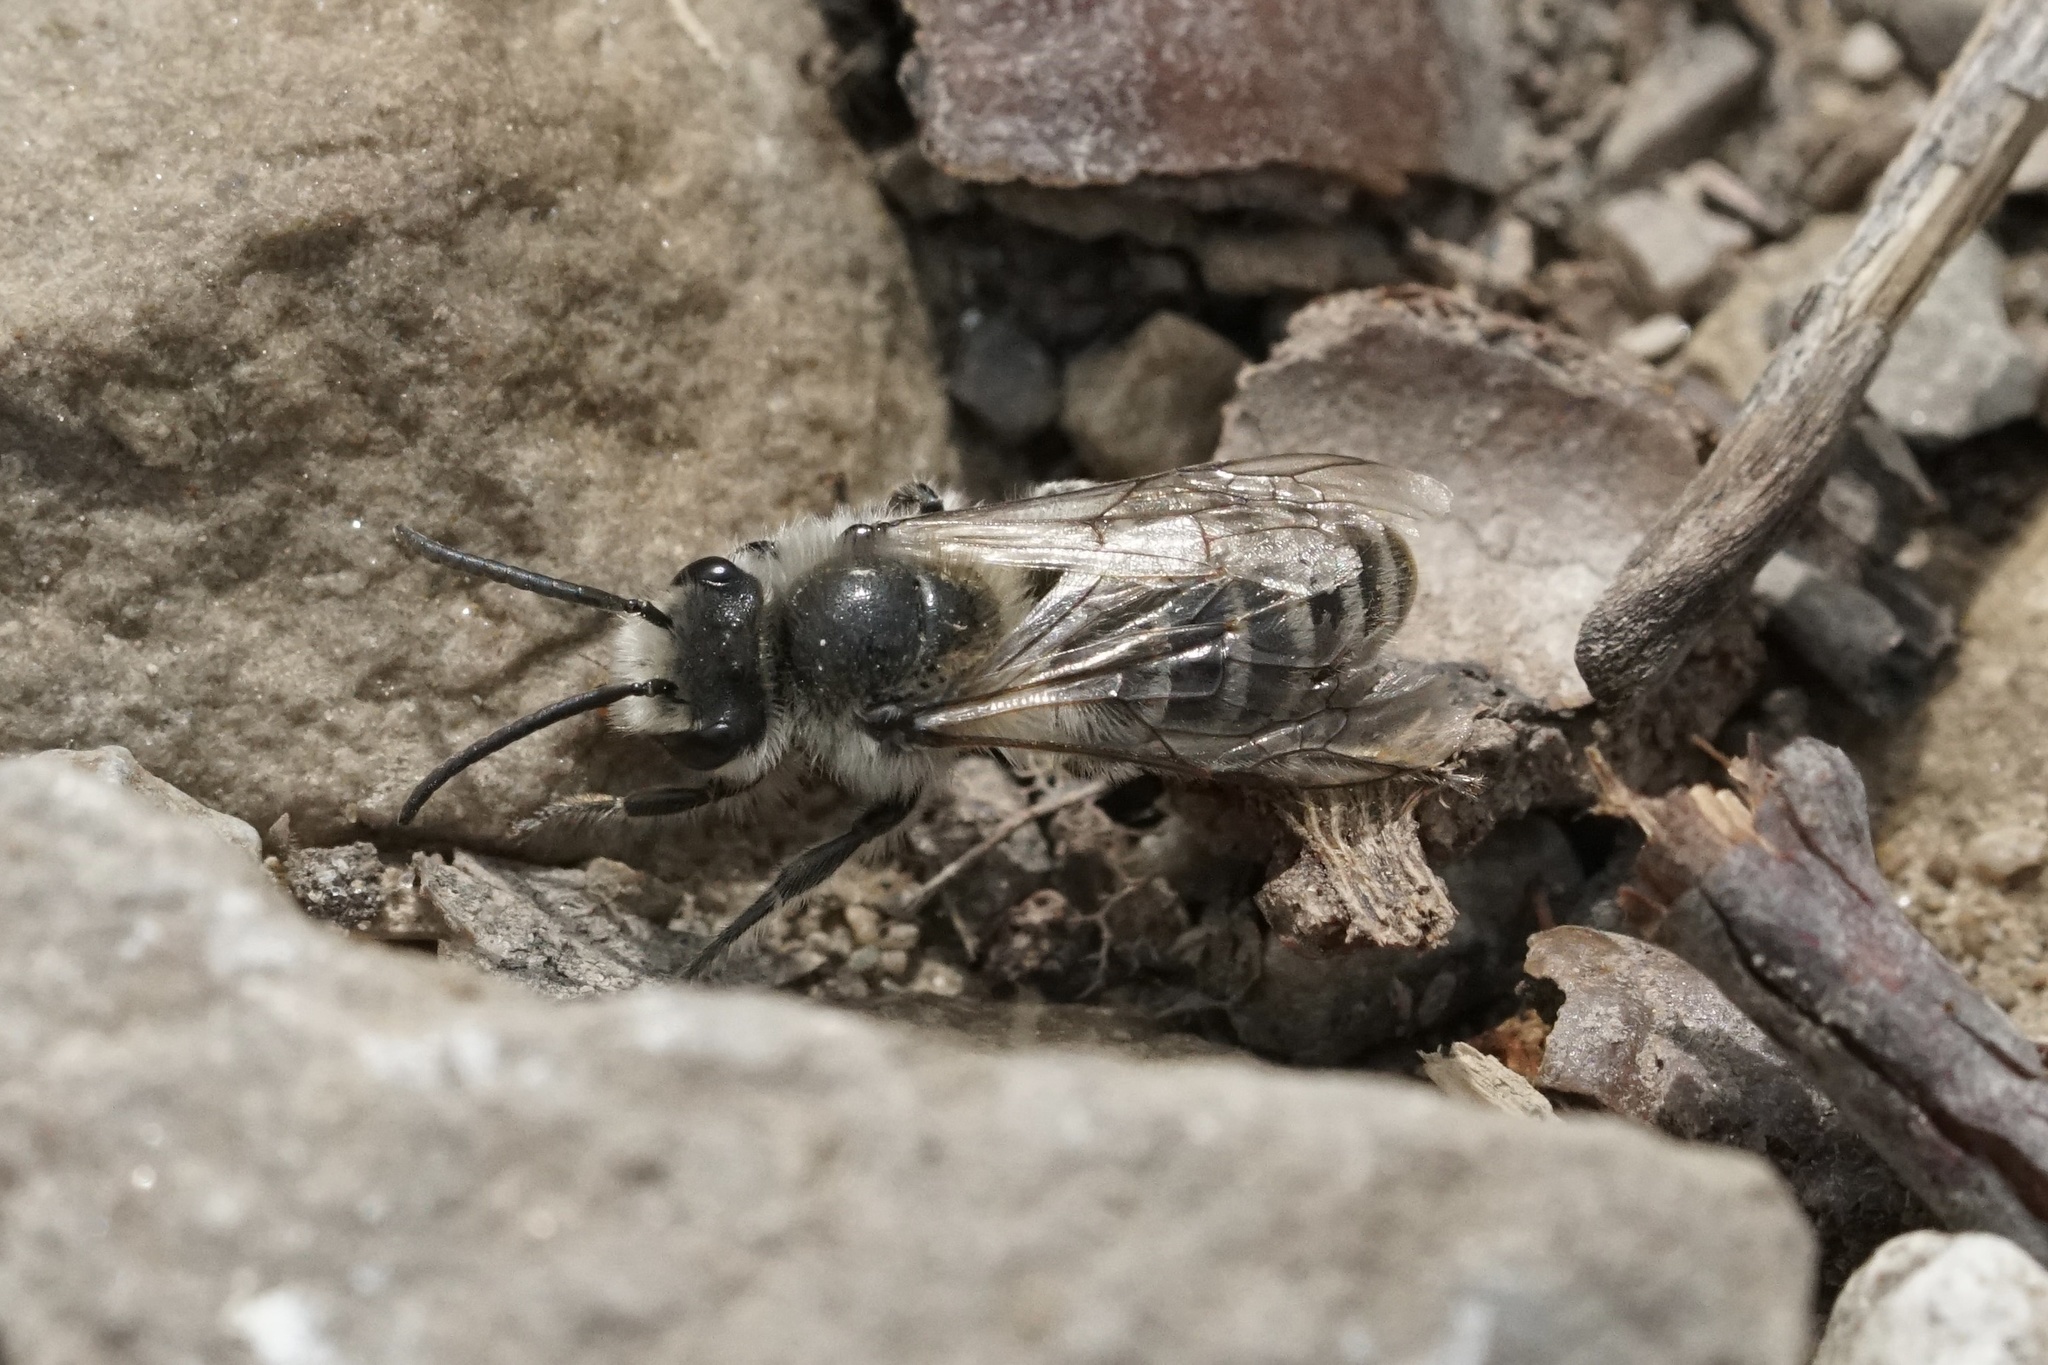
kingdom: Animalia
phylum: Arthropoda
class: Insecta
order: Hymenoptera
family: Colletidae
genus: Colletes
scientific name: Colletes inaequalis
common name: Unequal cellophane bee
